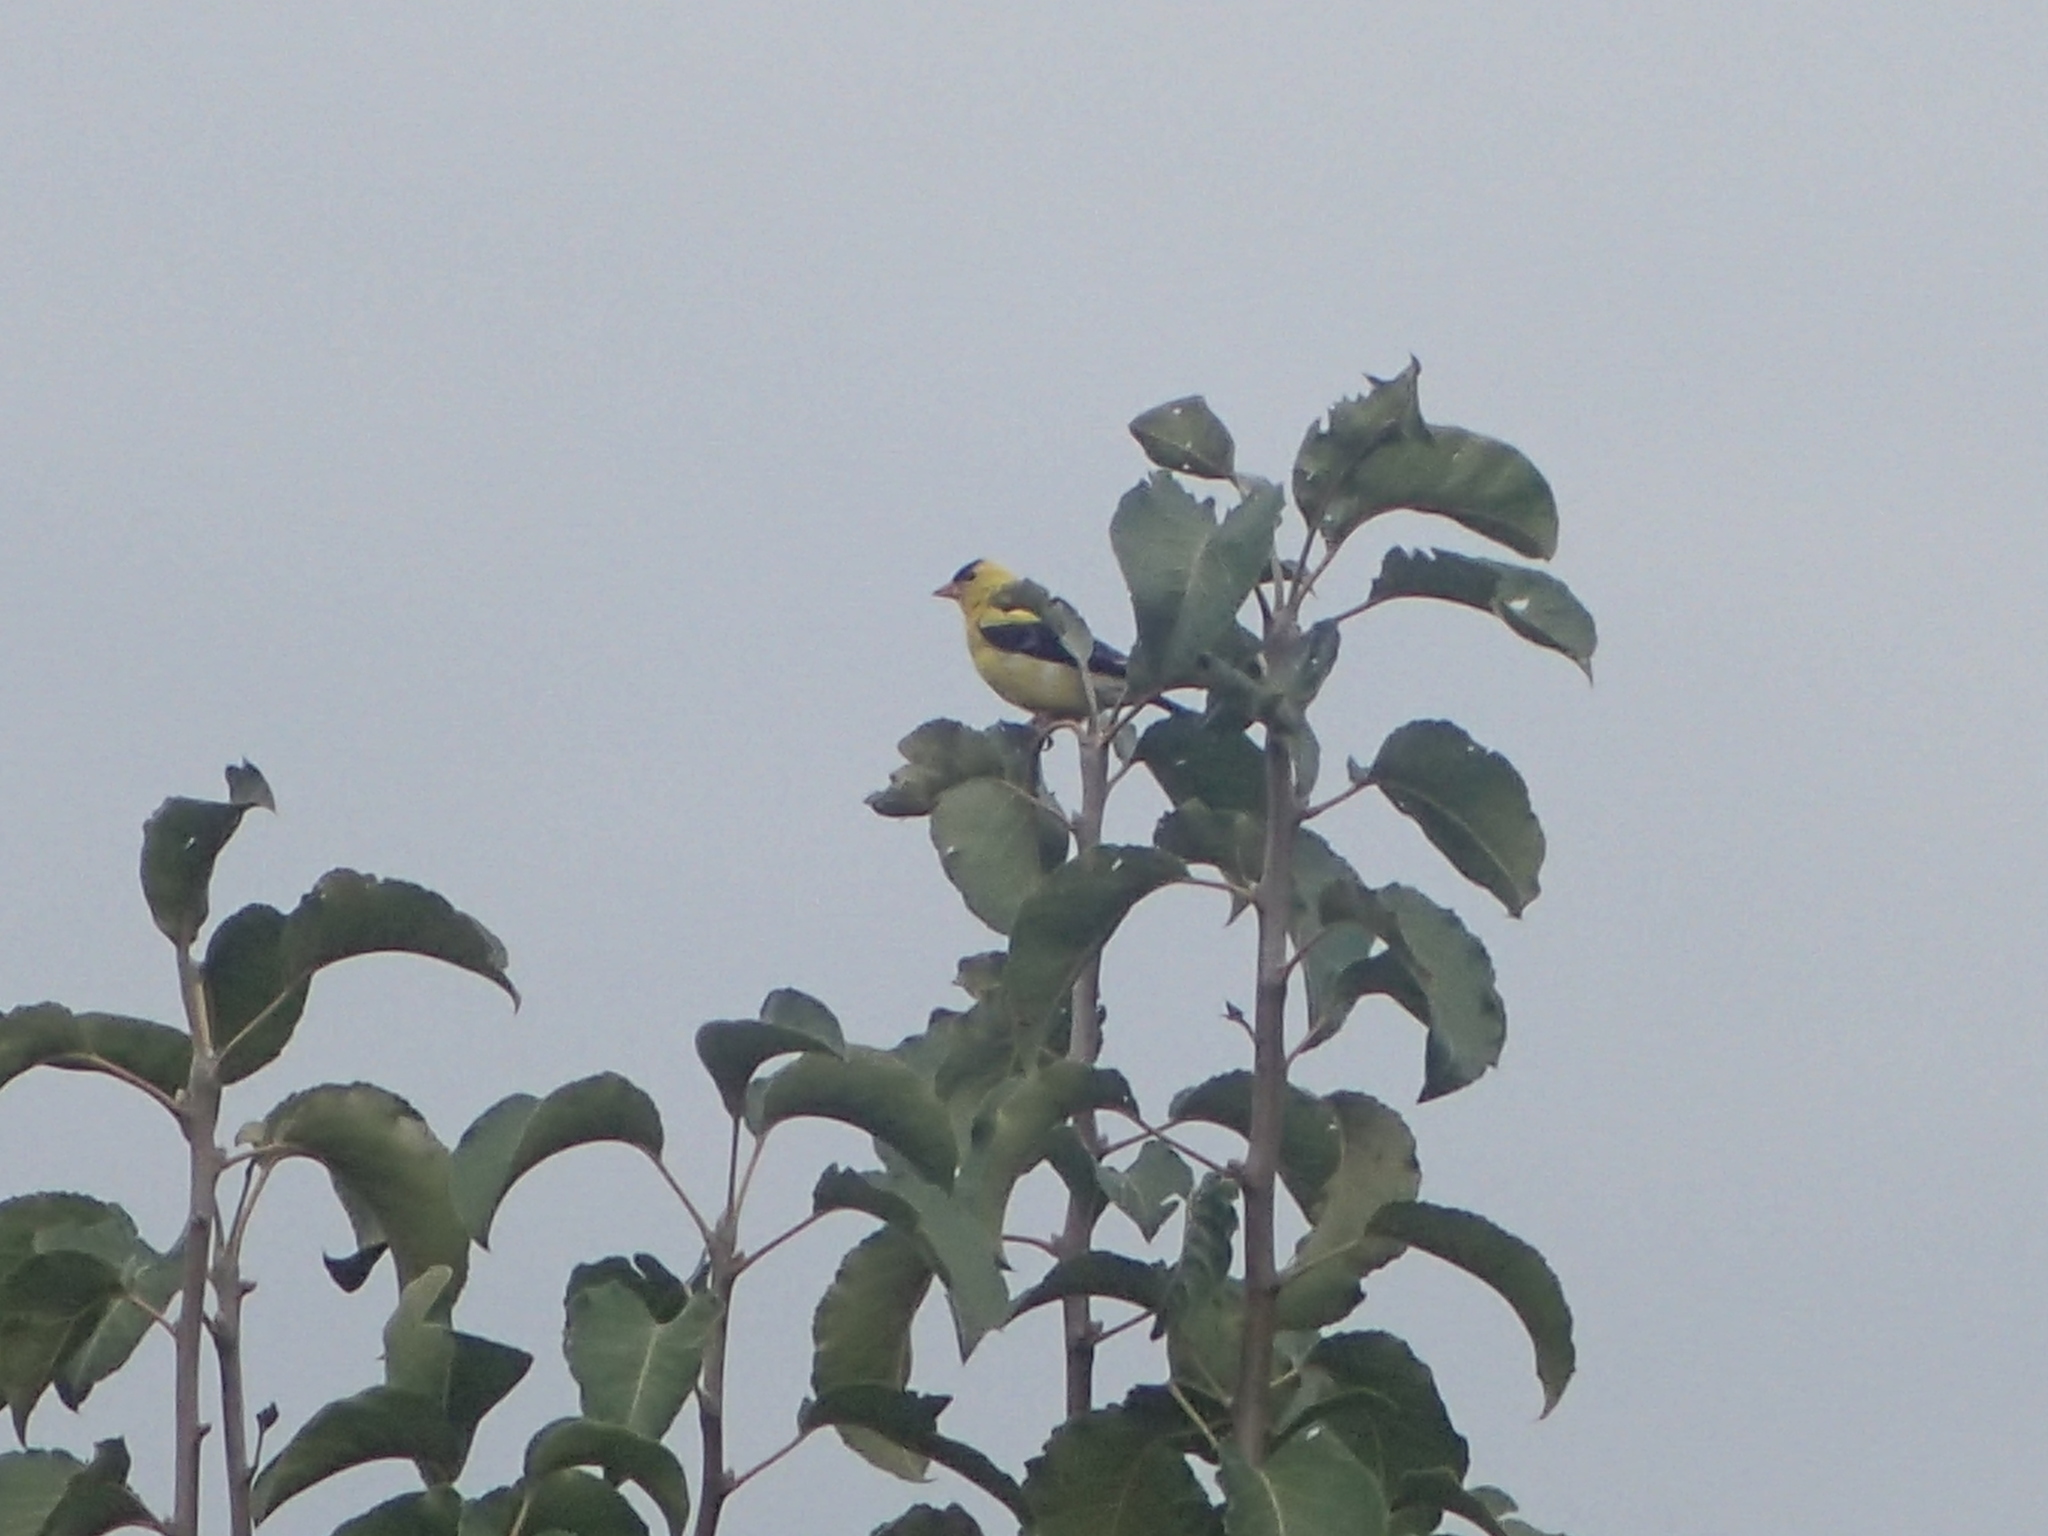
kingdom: Animalia
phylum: Chordata
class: Aves
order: Passeriformes
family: Fringillidae
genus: Spinus
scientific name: Spinus tristis
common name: American goldfinch
